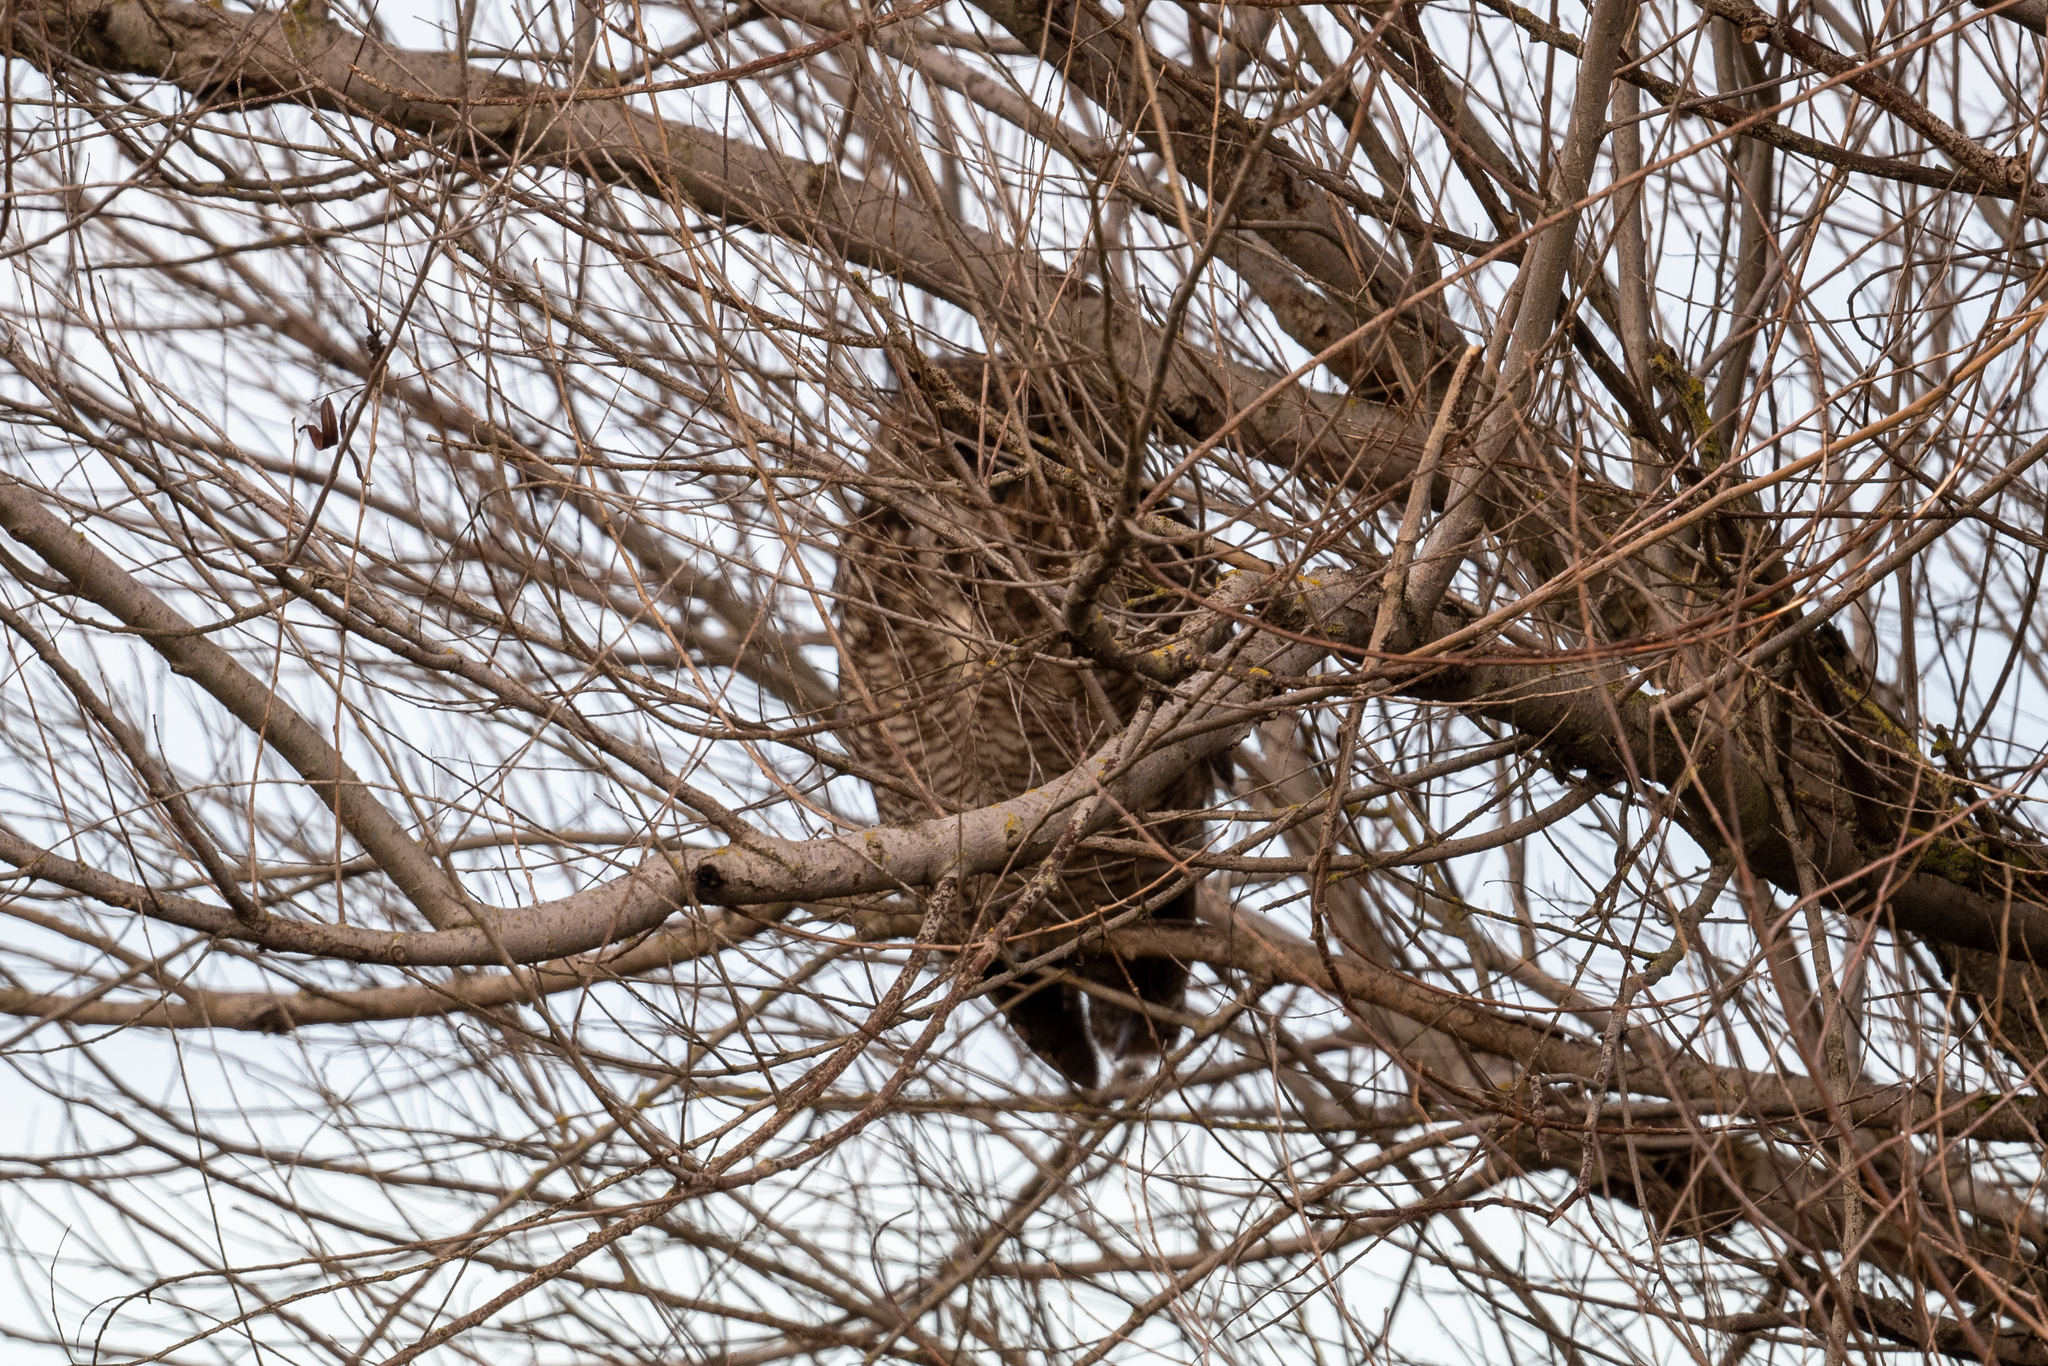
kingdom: Animalia
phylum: Chordata
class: Aves
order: Strigiformes
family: Strigidae
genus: Bubo
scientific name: Bubo virginianus
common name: Great horned owl
